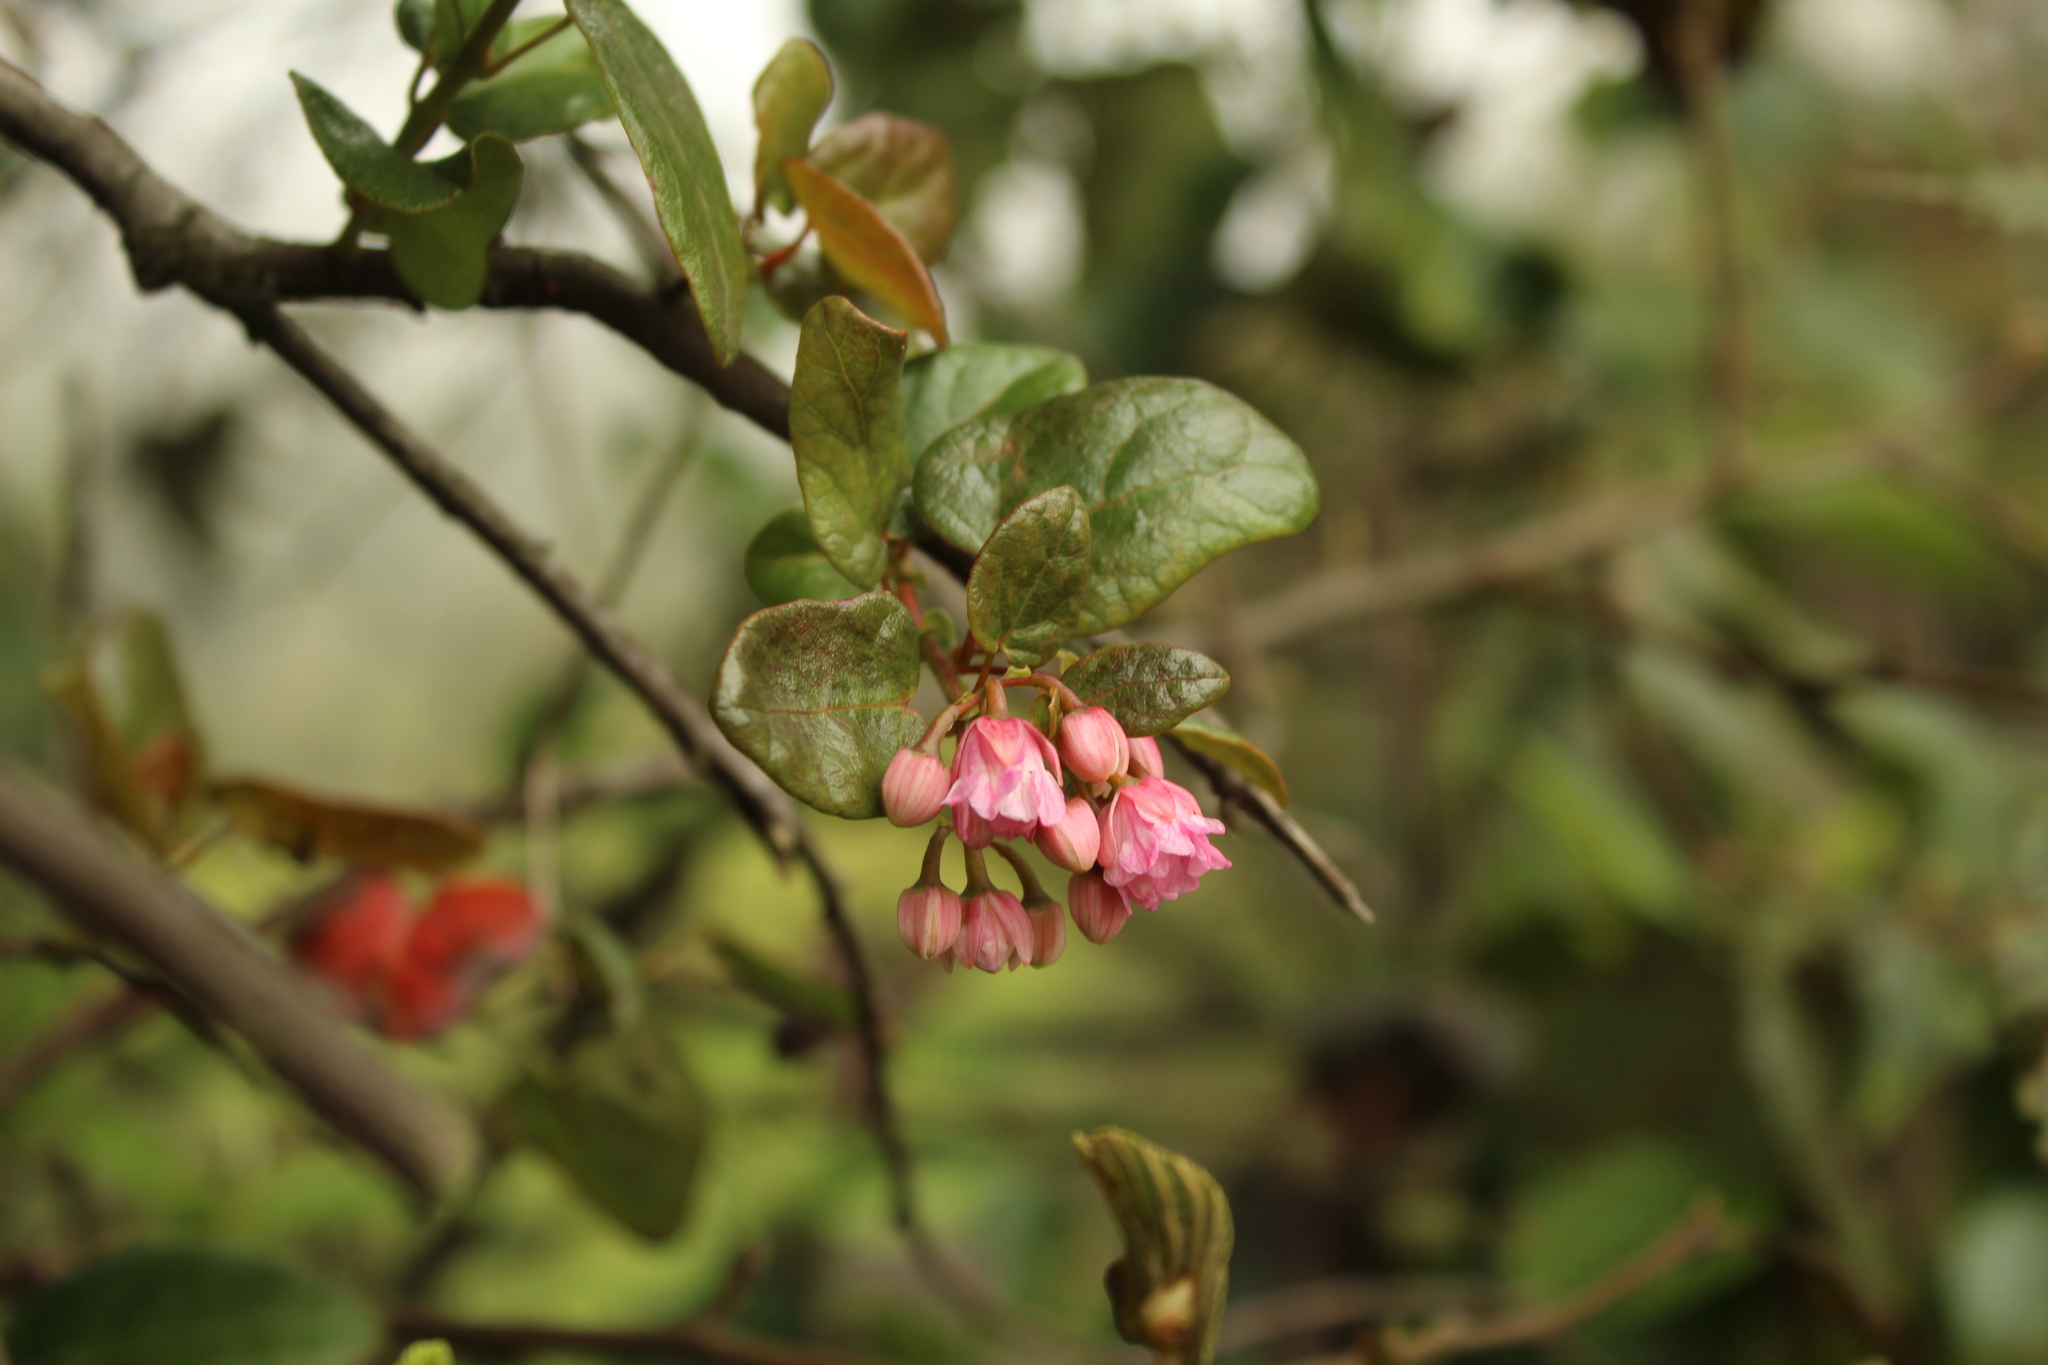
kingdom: Plantae
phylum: Tracheophyta
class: Magnoliopsida
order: Oxalidales
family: Elaeocarpaceae
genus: Vallea
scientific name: Vallea stipularis
